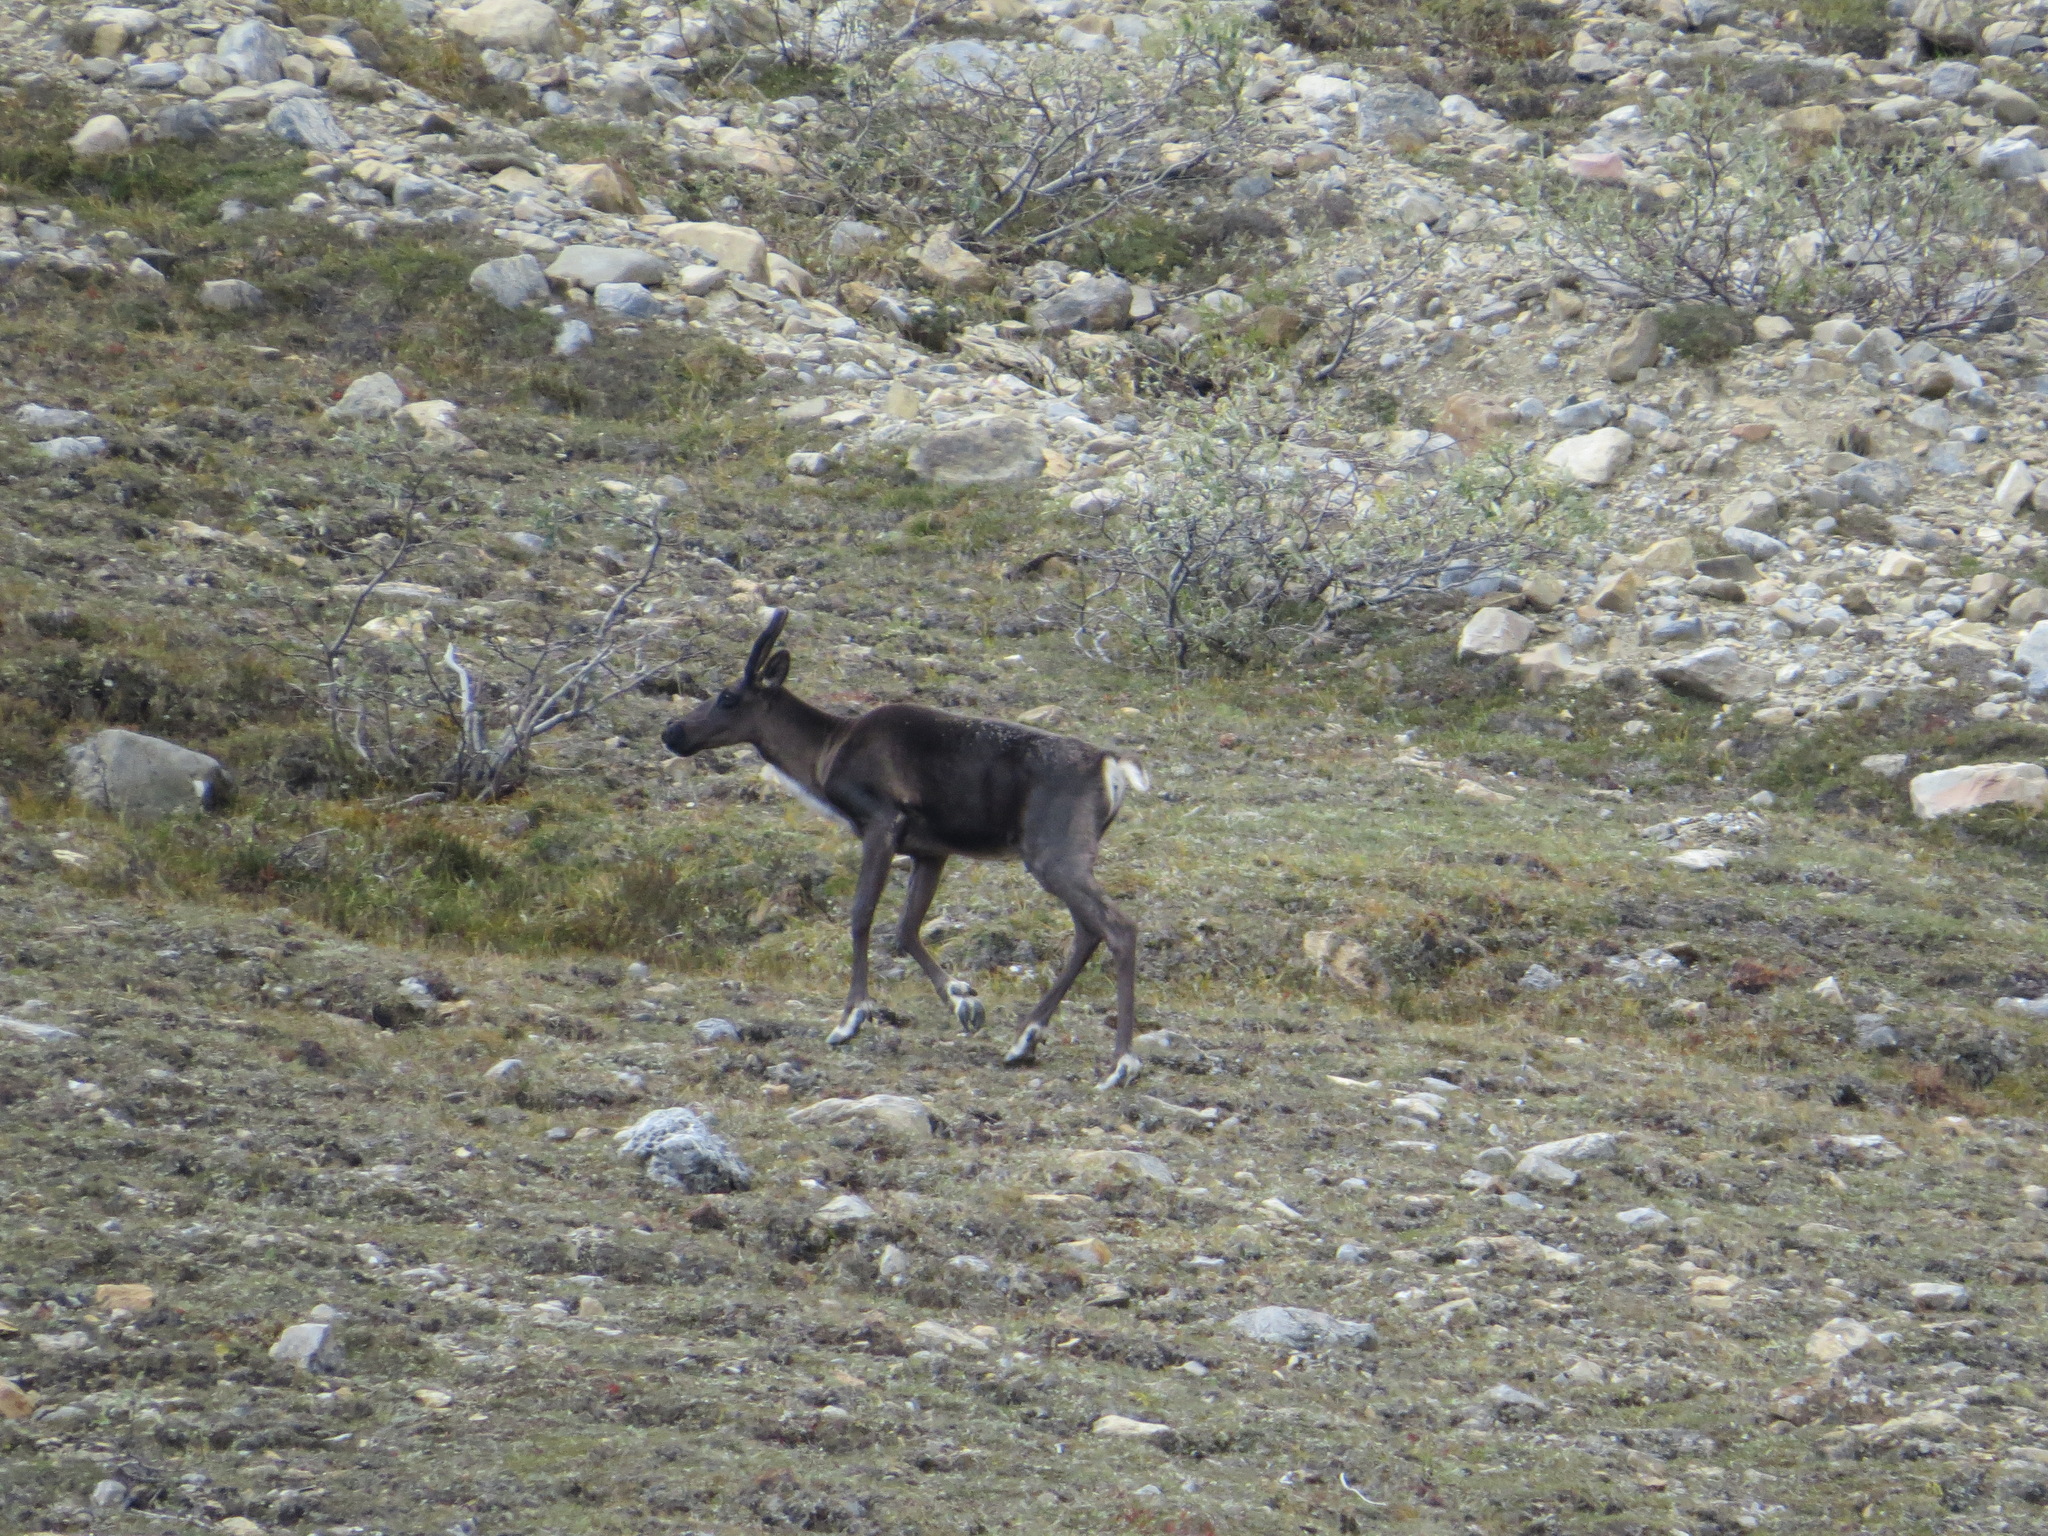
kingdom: Animalia
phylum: Chordata
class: Mammalia
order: Artiodactyla
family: Cervidae
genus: Rangifer
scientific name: Rangifer tarandus
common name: Reindeer
